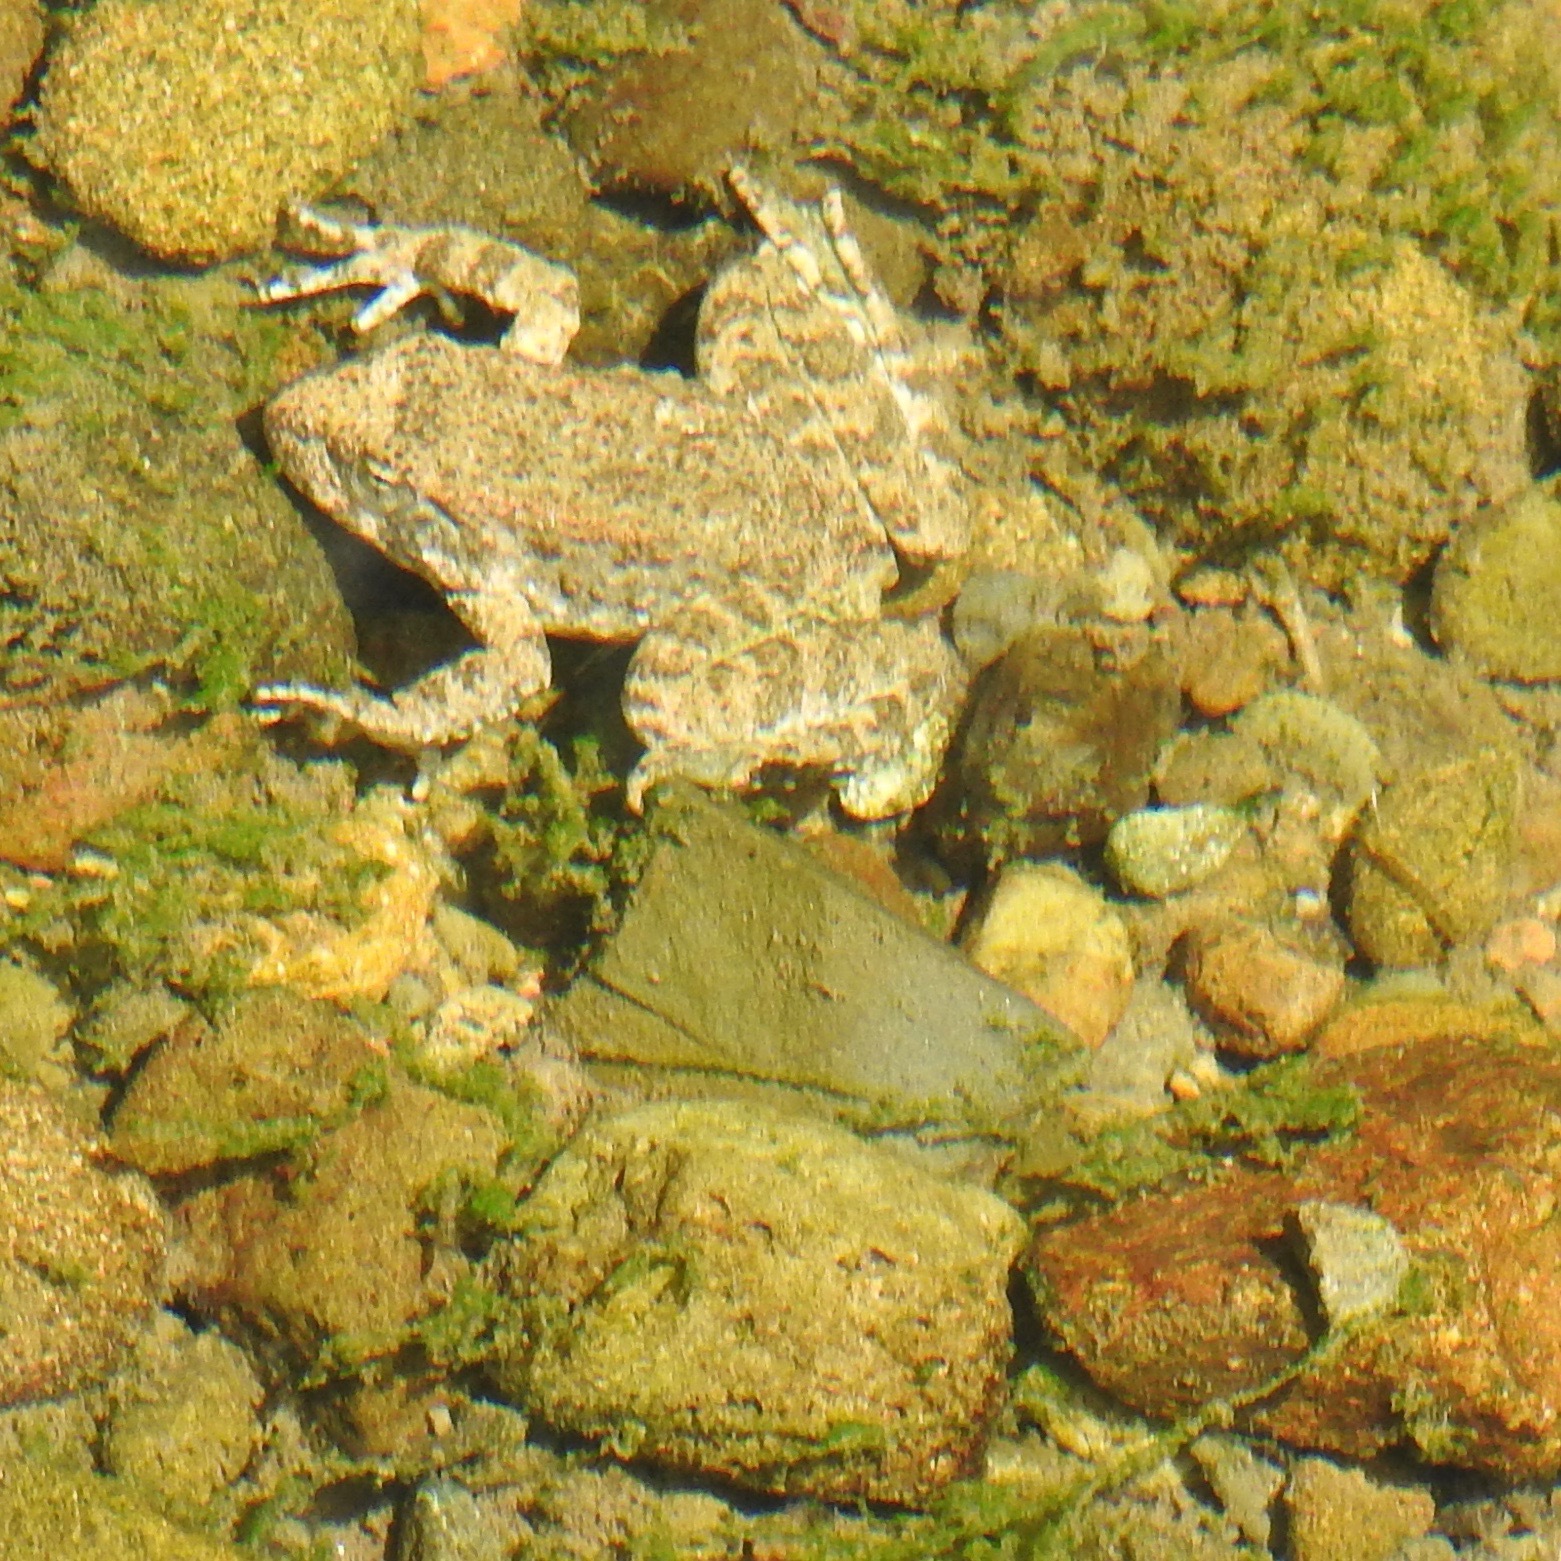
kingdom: Animalia
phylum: Chordata
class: Amphibia
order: Anura
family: Ranidae
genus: Rana
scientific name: Rana boylii
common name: Foothill yellow-legged frog
